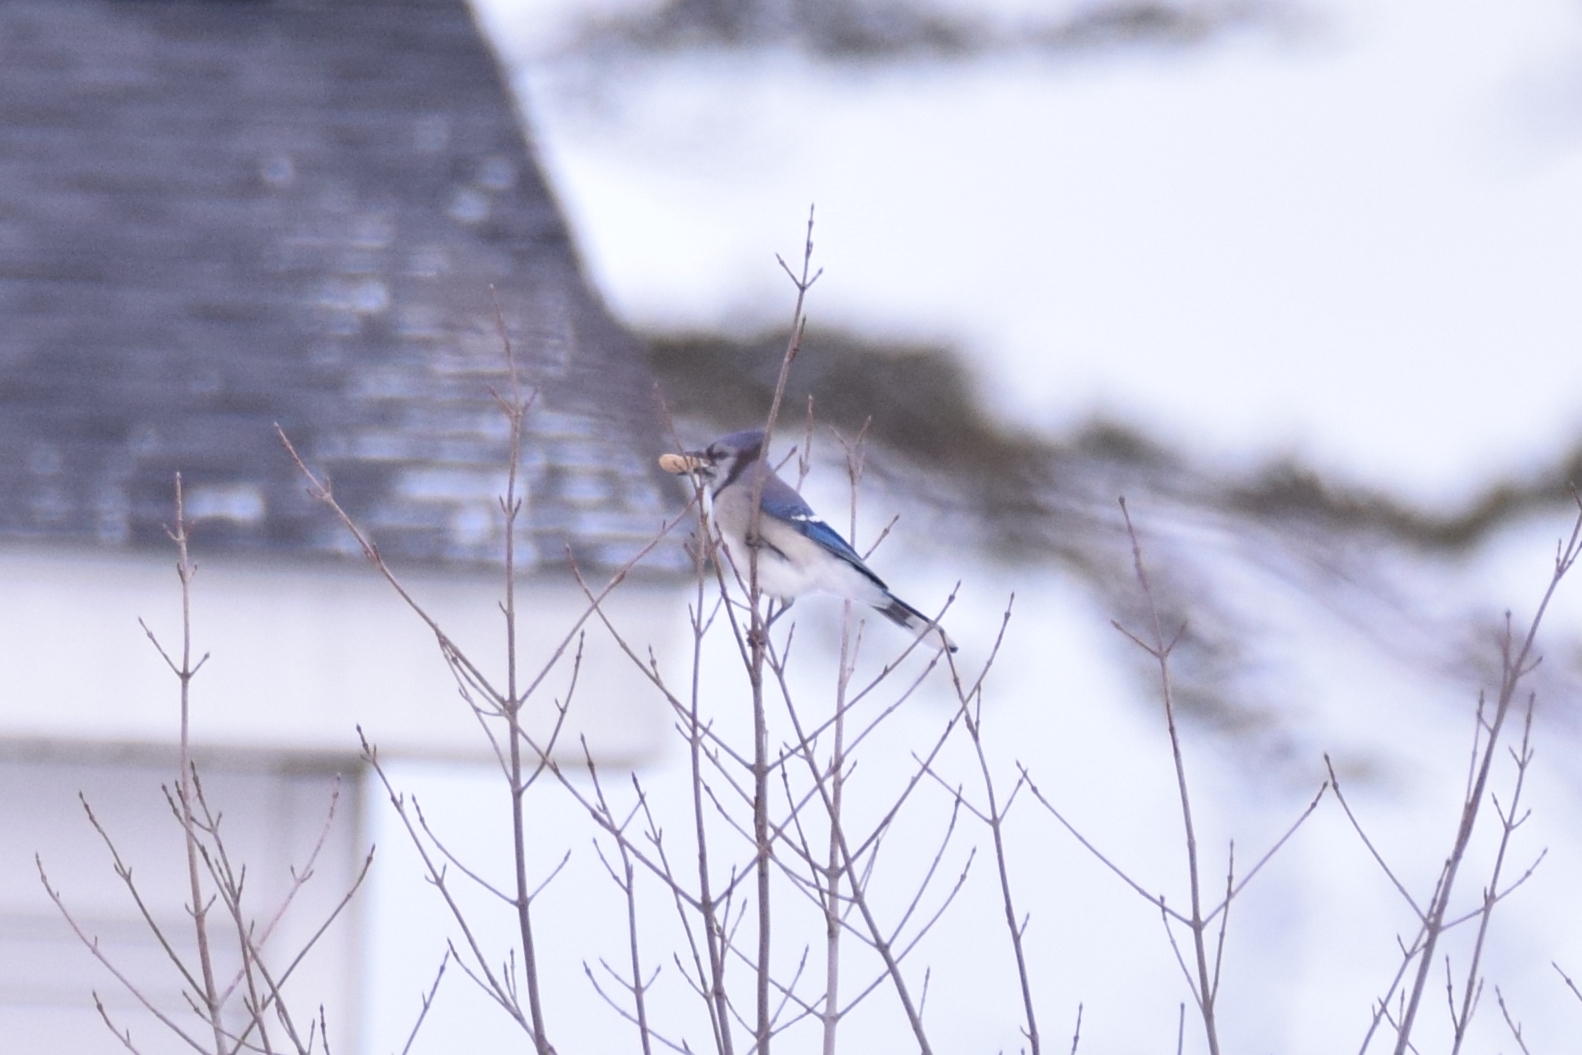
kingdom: Animalia
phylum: Chordata
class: Aves
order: Passeriformes
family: Corvidae
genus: Cyanocitta
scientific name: Cyanocitta cristata
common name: Blue jay
